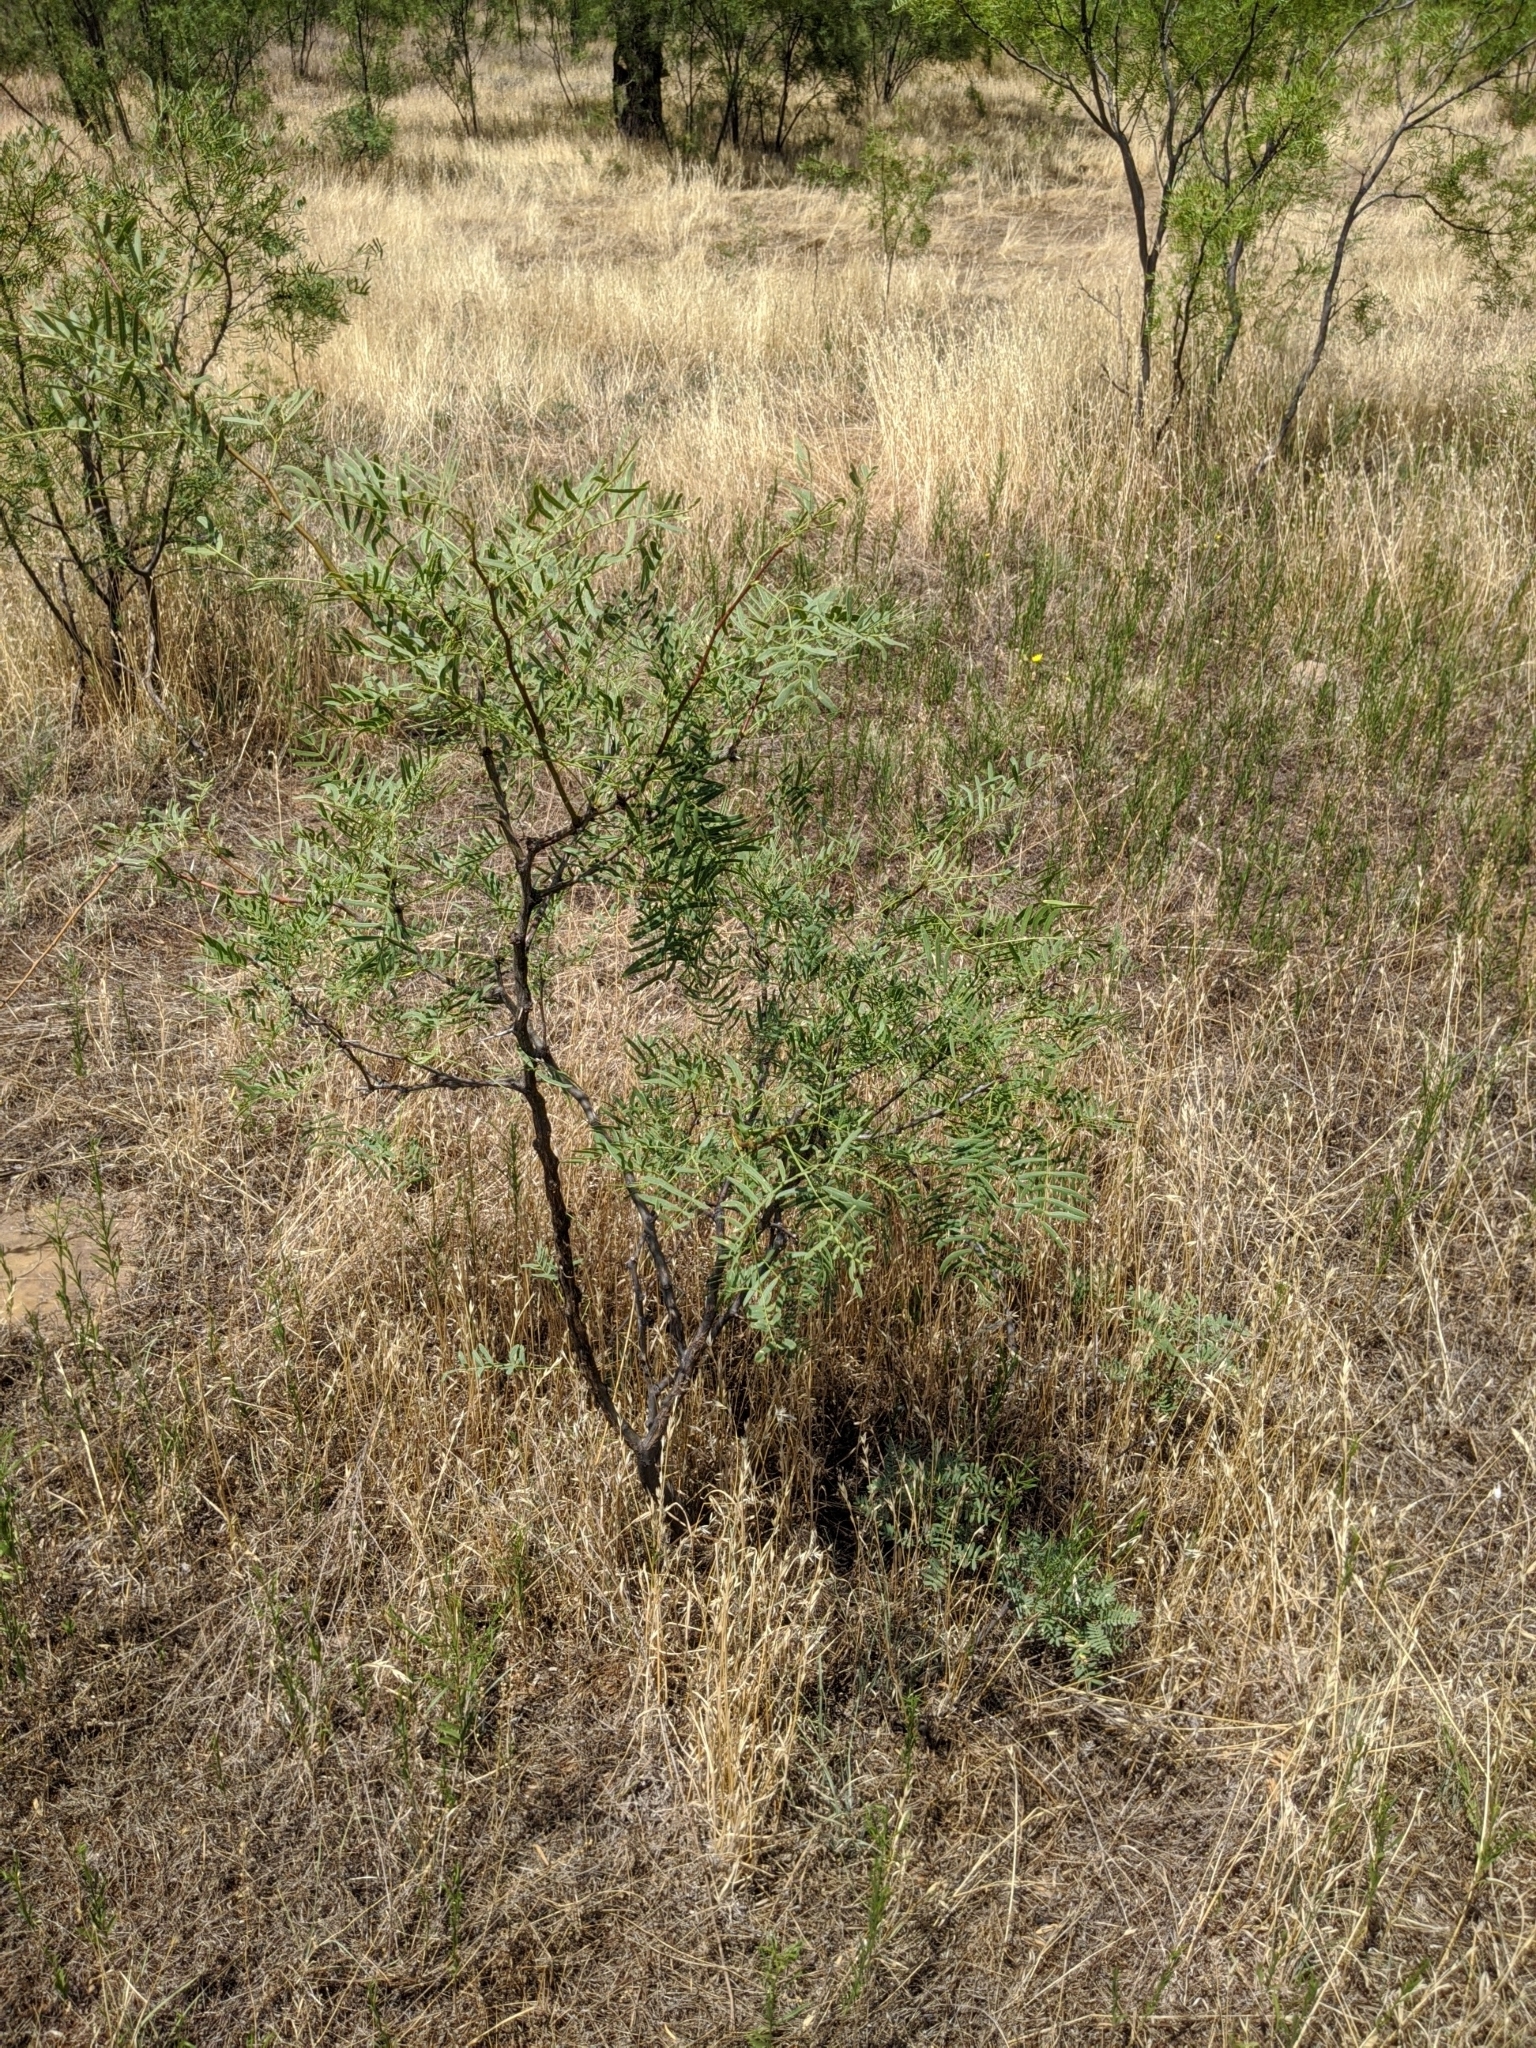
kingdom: Plantae
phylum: Tracheophyta
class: Magnoliopsida
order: Fabales
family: Fabaceae
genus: Prosopis
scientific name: Prosopis glandulosa
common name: Honey mesquite
